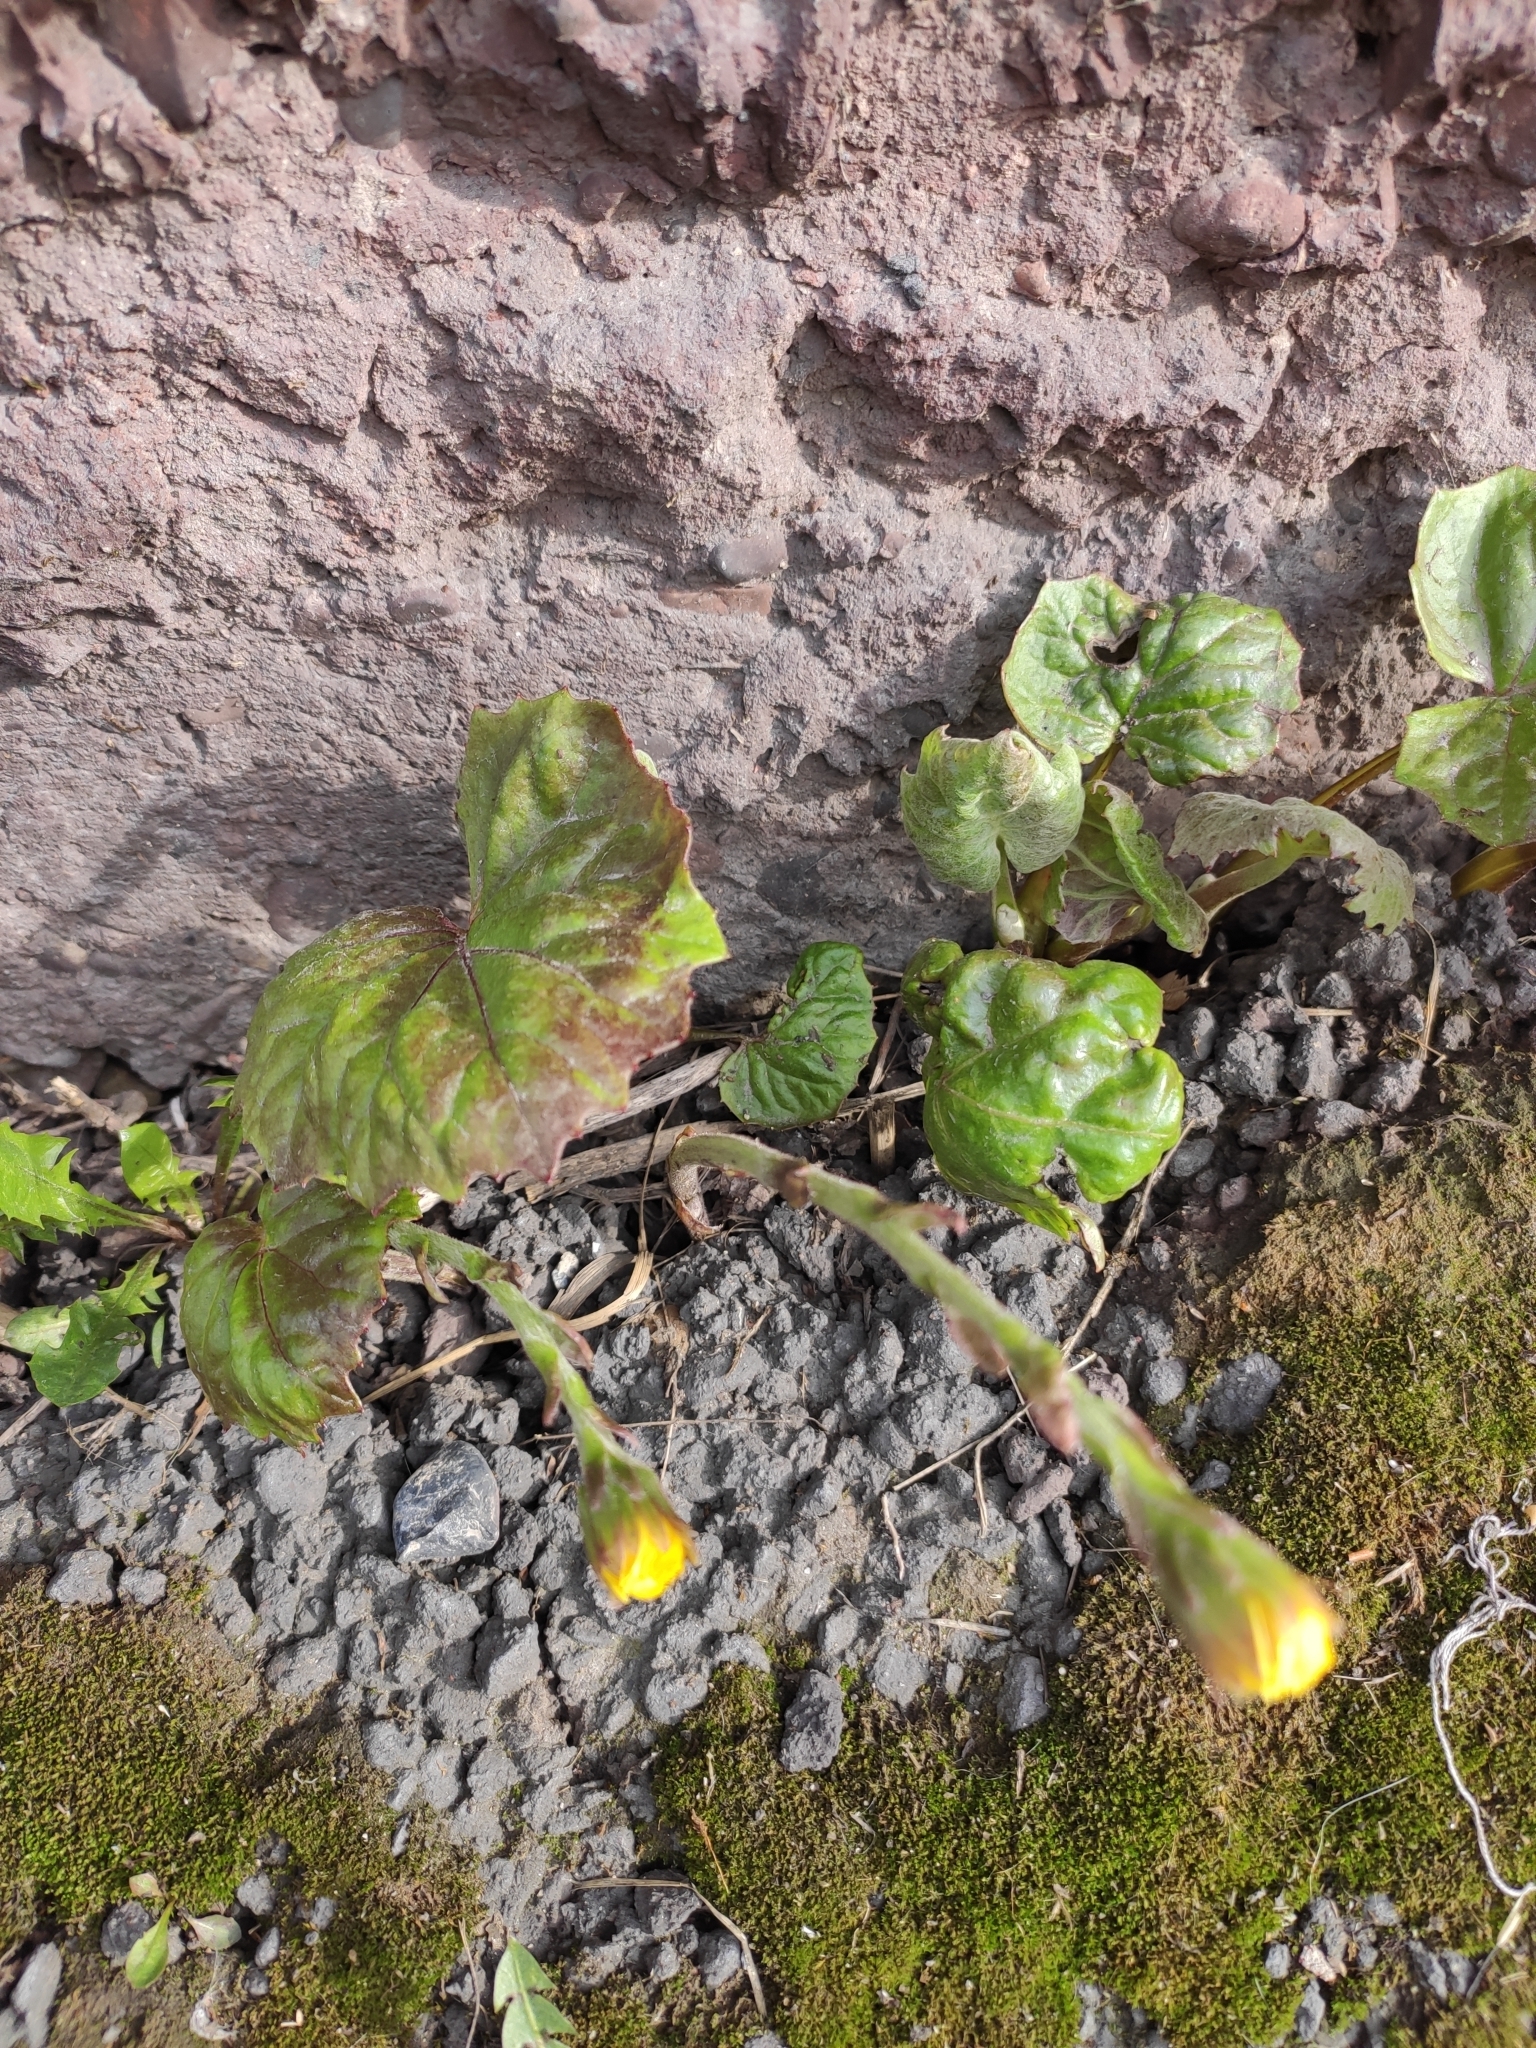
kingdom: Plantae
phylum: Tracheophyta
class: Magnoliopsida
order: Asterales
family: Asteraceae
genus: Tussilago
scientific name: Tussilago farfara
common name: Coltsfoot
